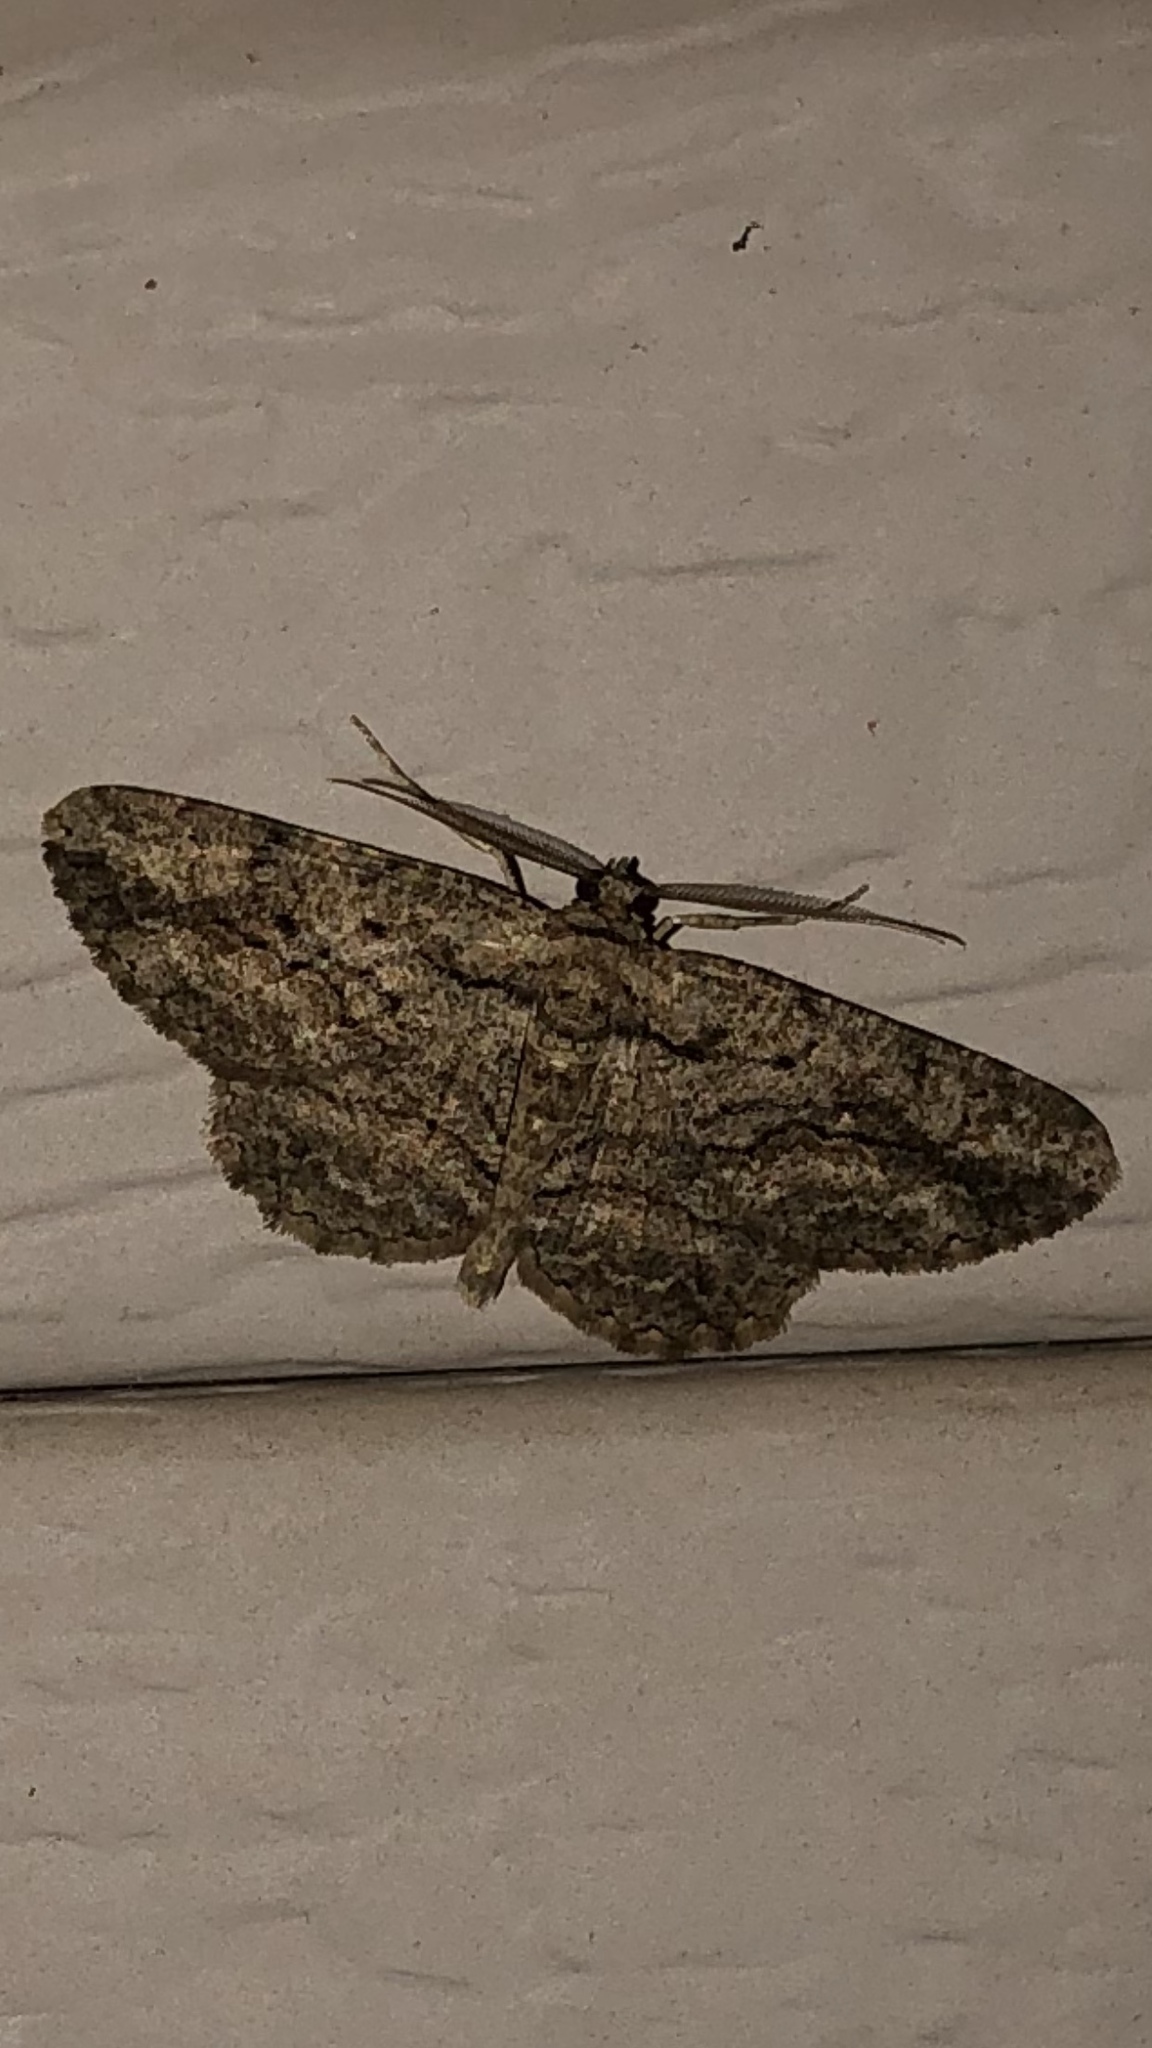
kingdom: Animalia
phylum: Arthropoda
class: Insecta
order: Lepidoptera
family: Geometridae
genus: Anavitrinella
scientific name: Anavitrinella pampinaria
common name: Common gray
